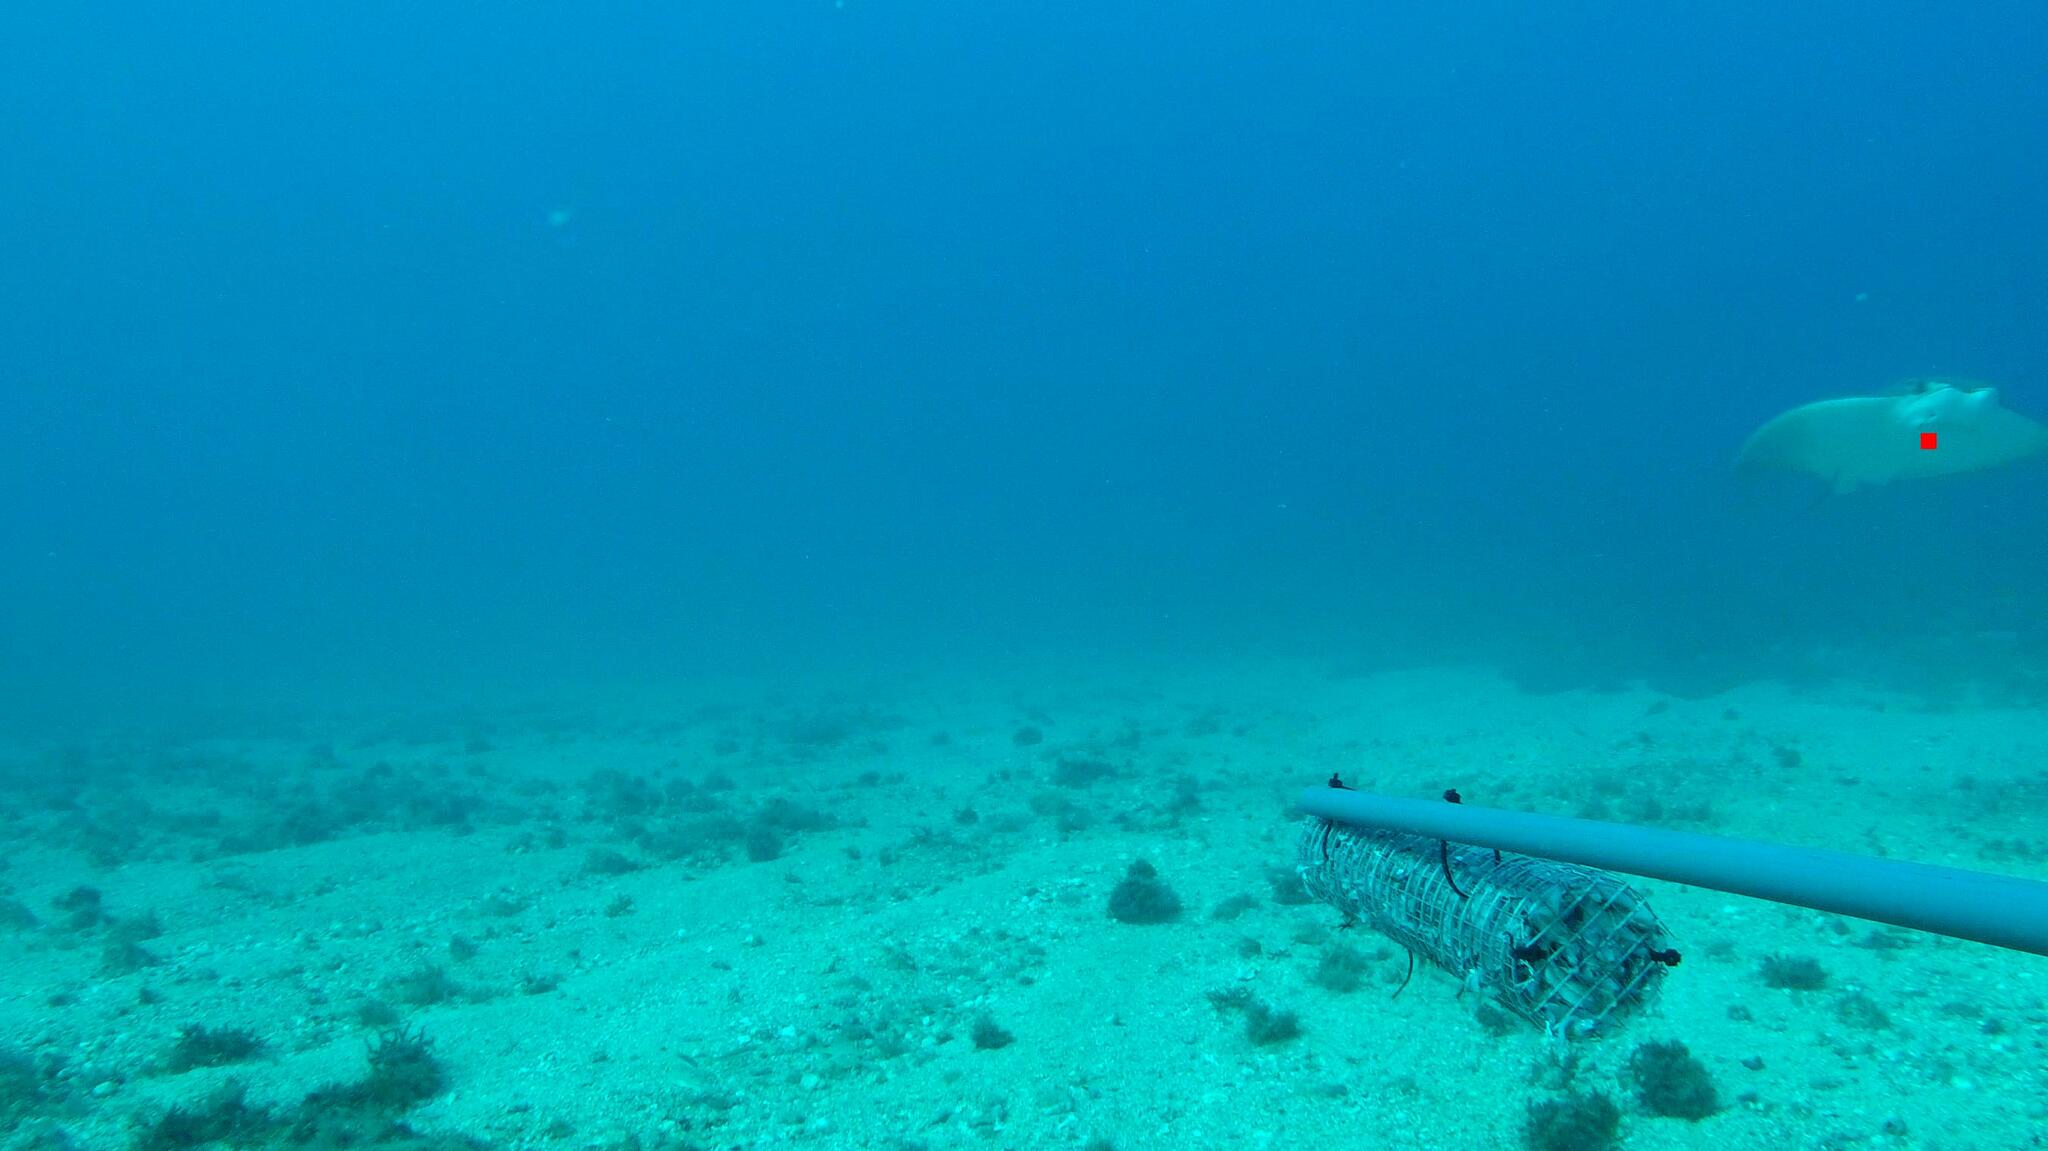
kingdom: Animalia
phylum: Chordata
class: Elasmobranchii
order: Myliobatiformes
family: Myliobatidae
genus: Rhinoptera
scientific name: Rhinoptera marginata
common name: Lusitanian cownose ray
